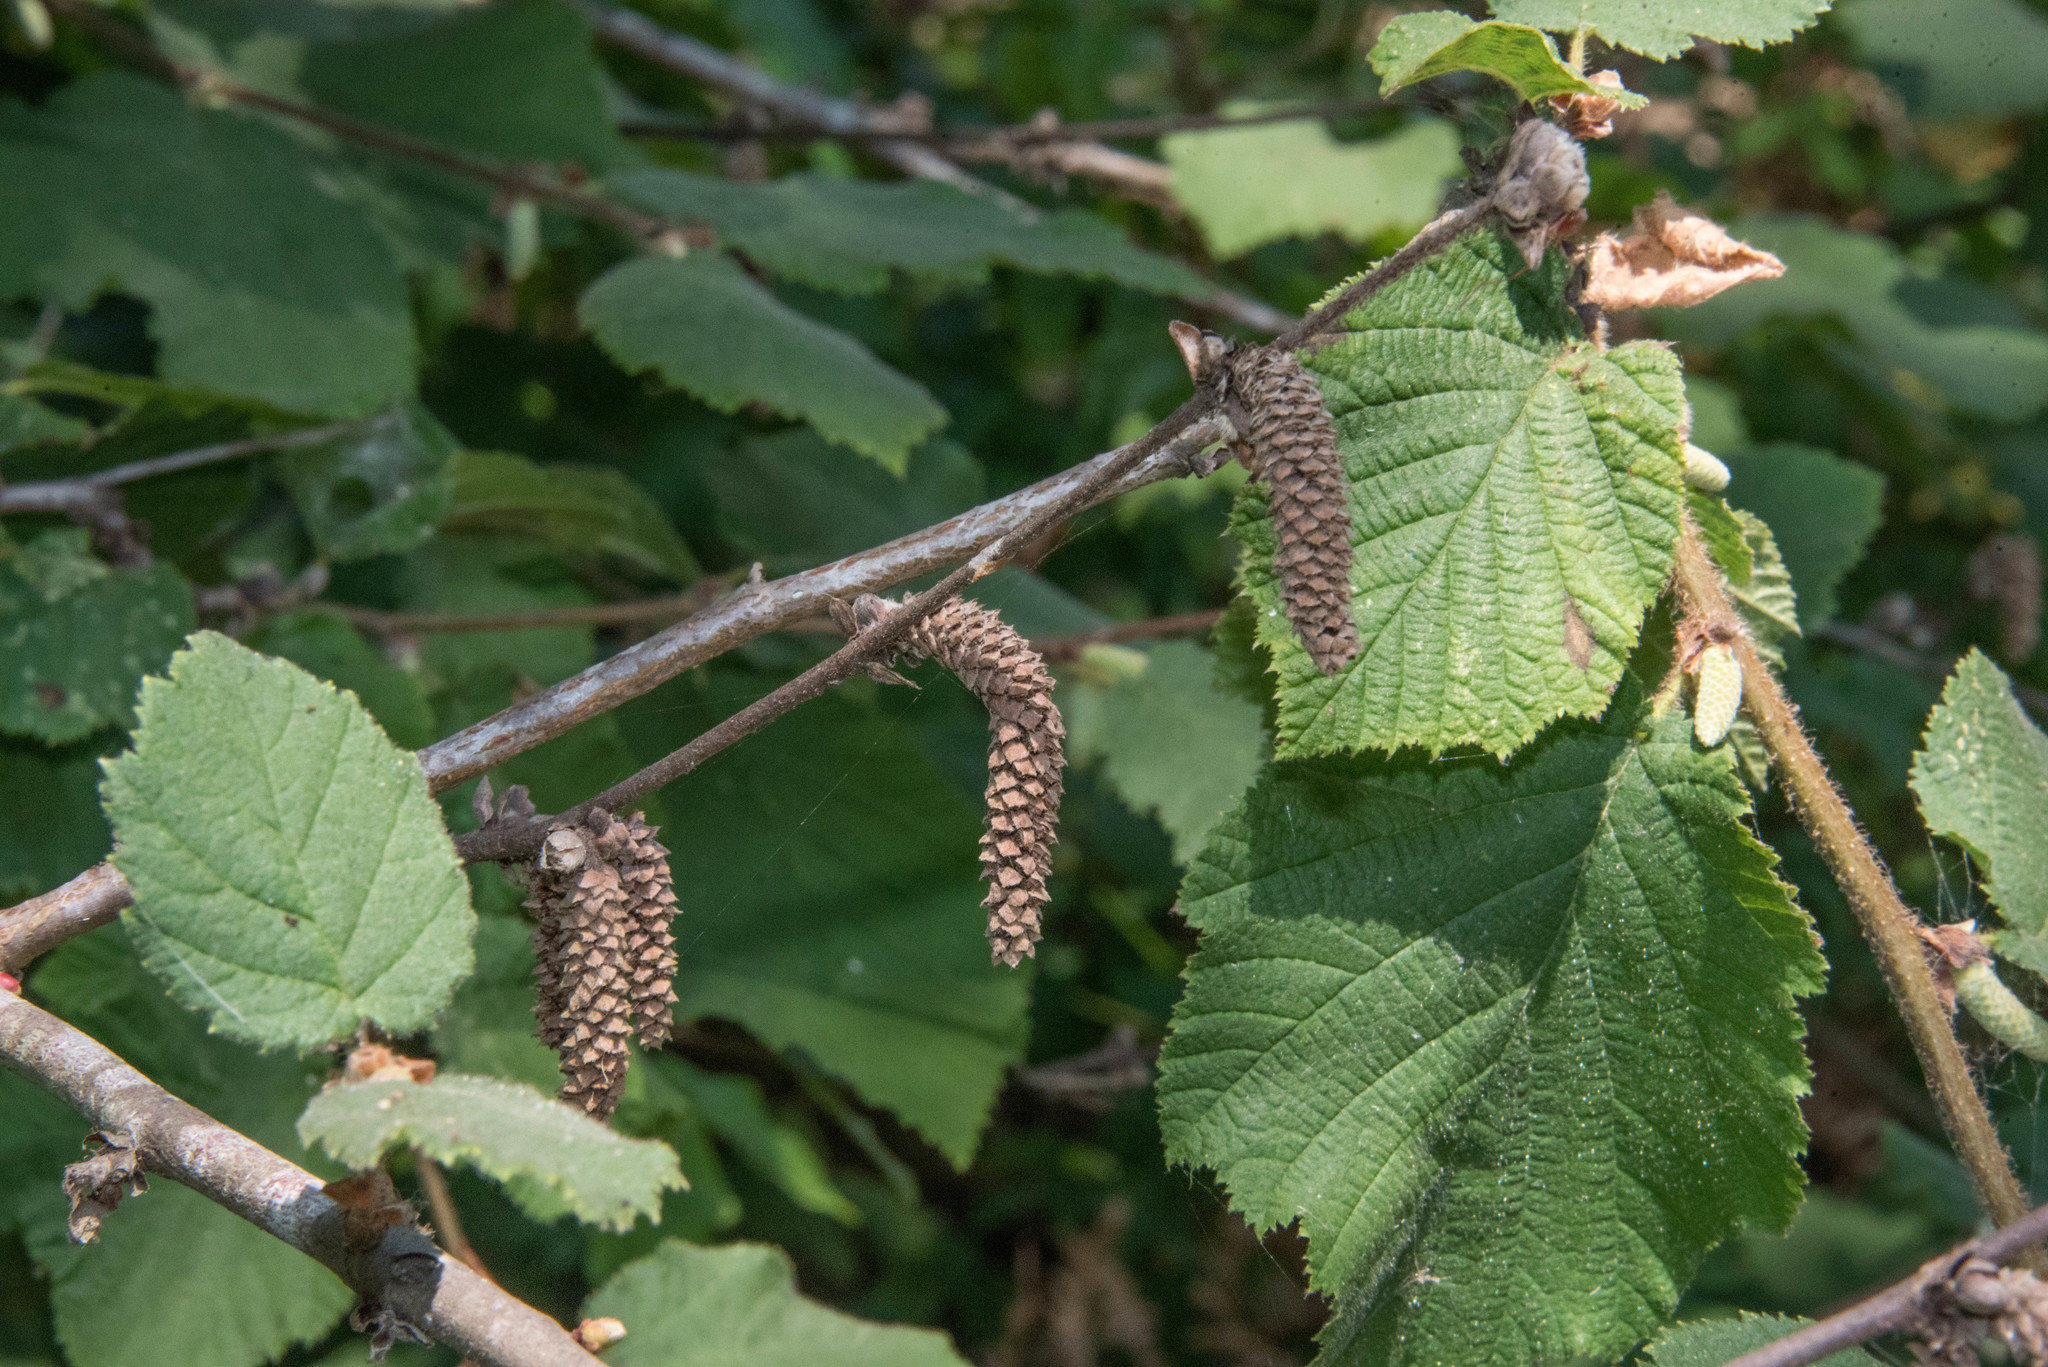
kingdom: Plantae
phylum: Tracheophyta
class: Magnoliopsida
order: Fagales
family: Betulaceae
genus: Corylus
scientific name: Corylus cornuta
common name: Beaked hazel
